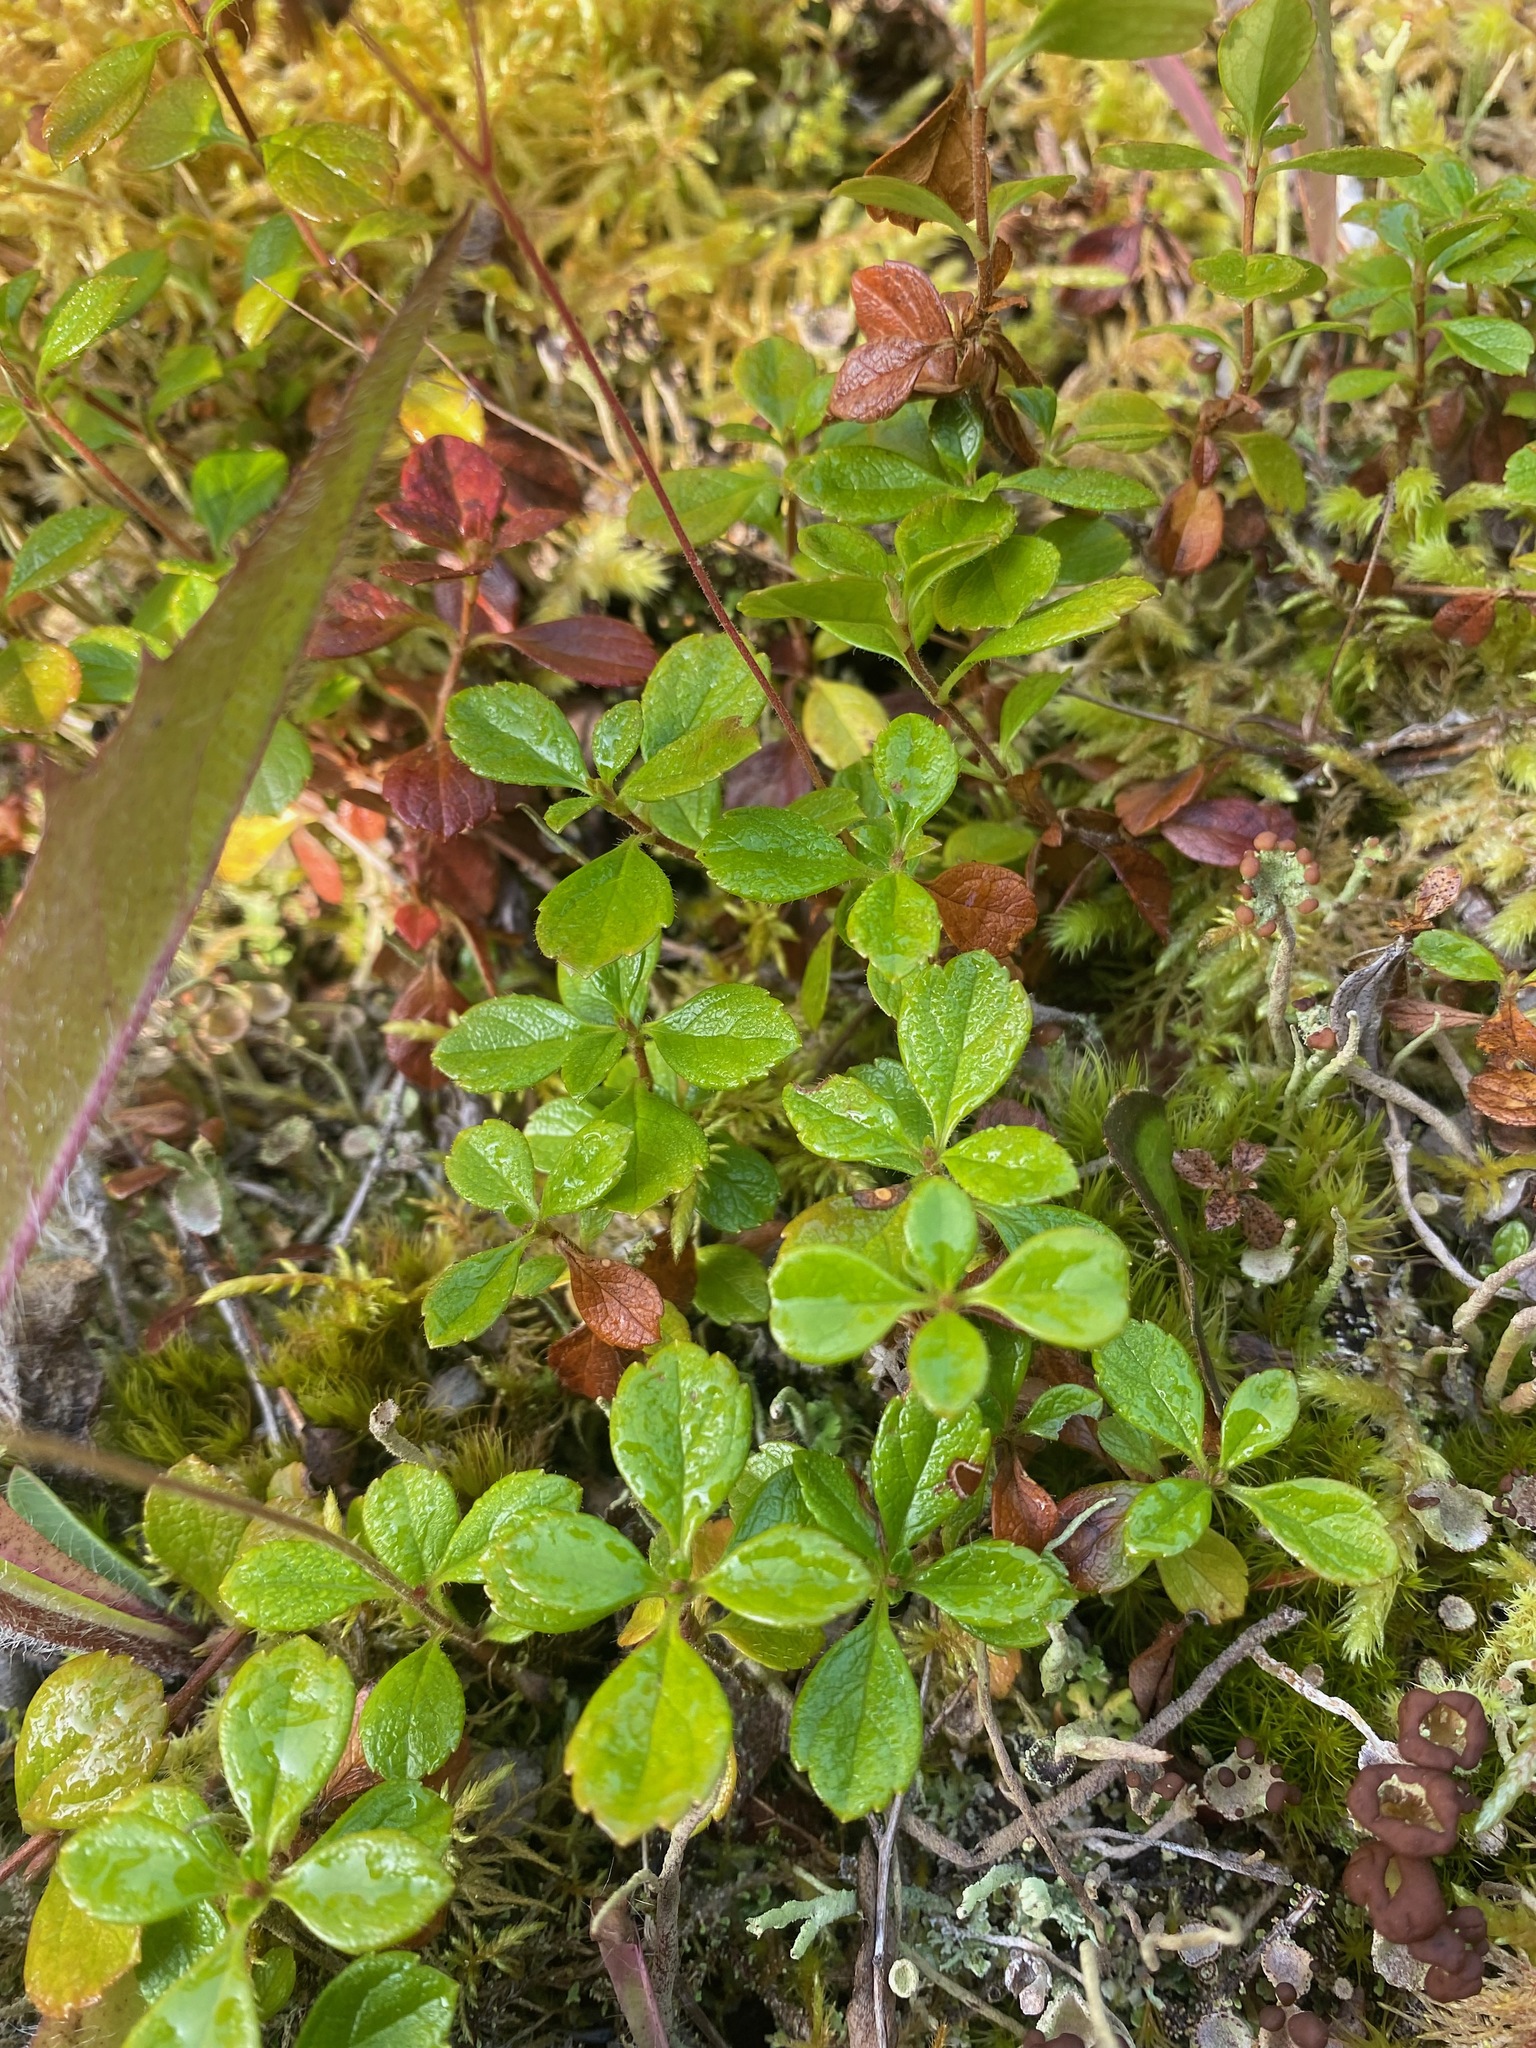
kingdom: Plantae
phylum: Tracheophyta
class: Magnoliopsida
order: Dipsacales
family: Caprifoliaceae
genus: Linnaea
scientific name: Linnaea borealis
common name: Twinflower
